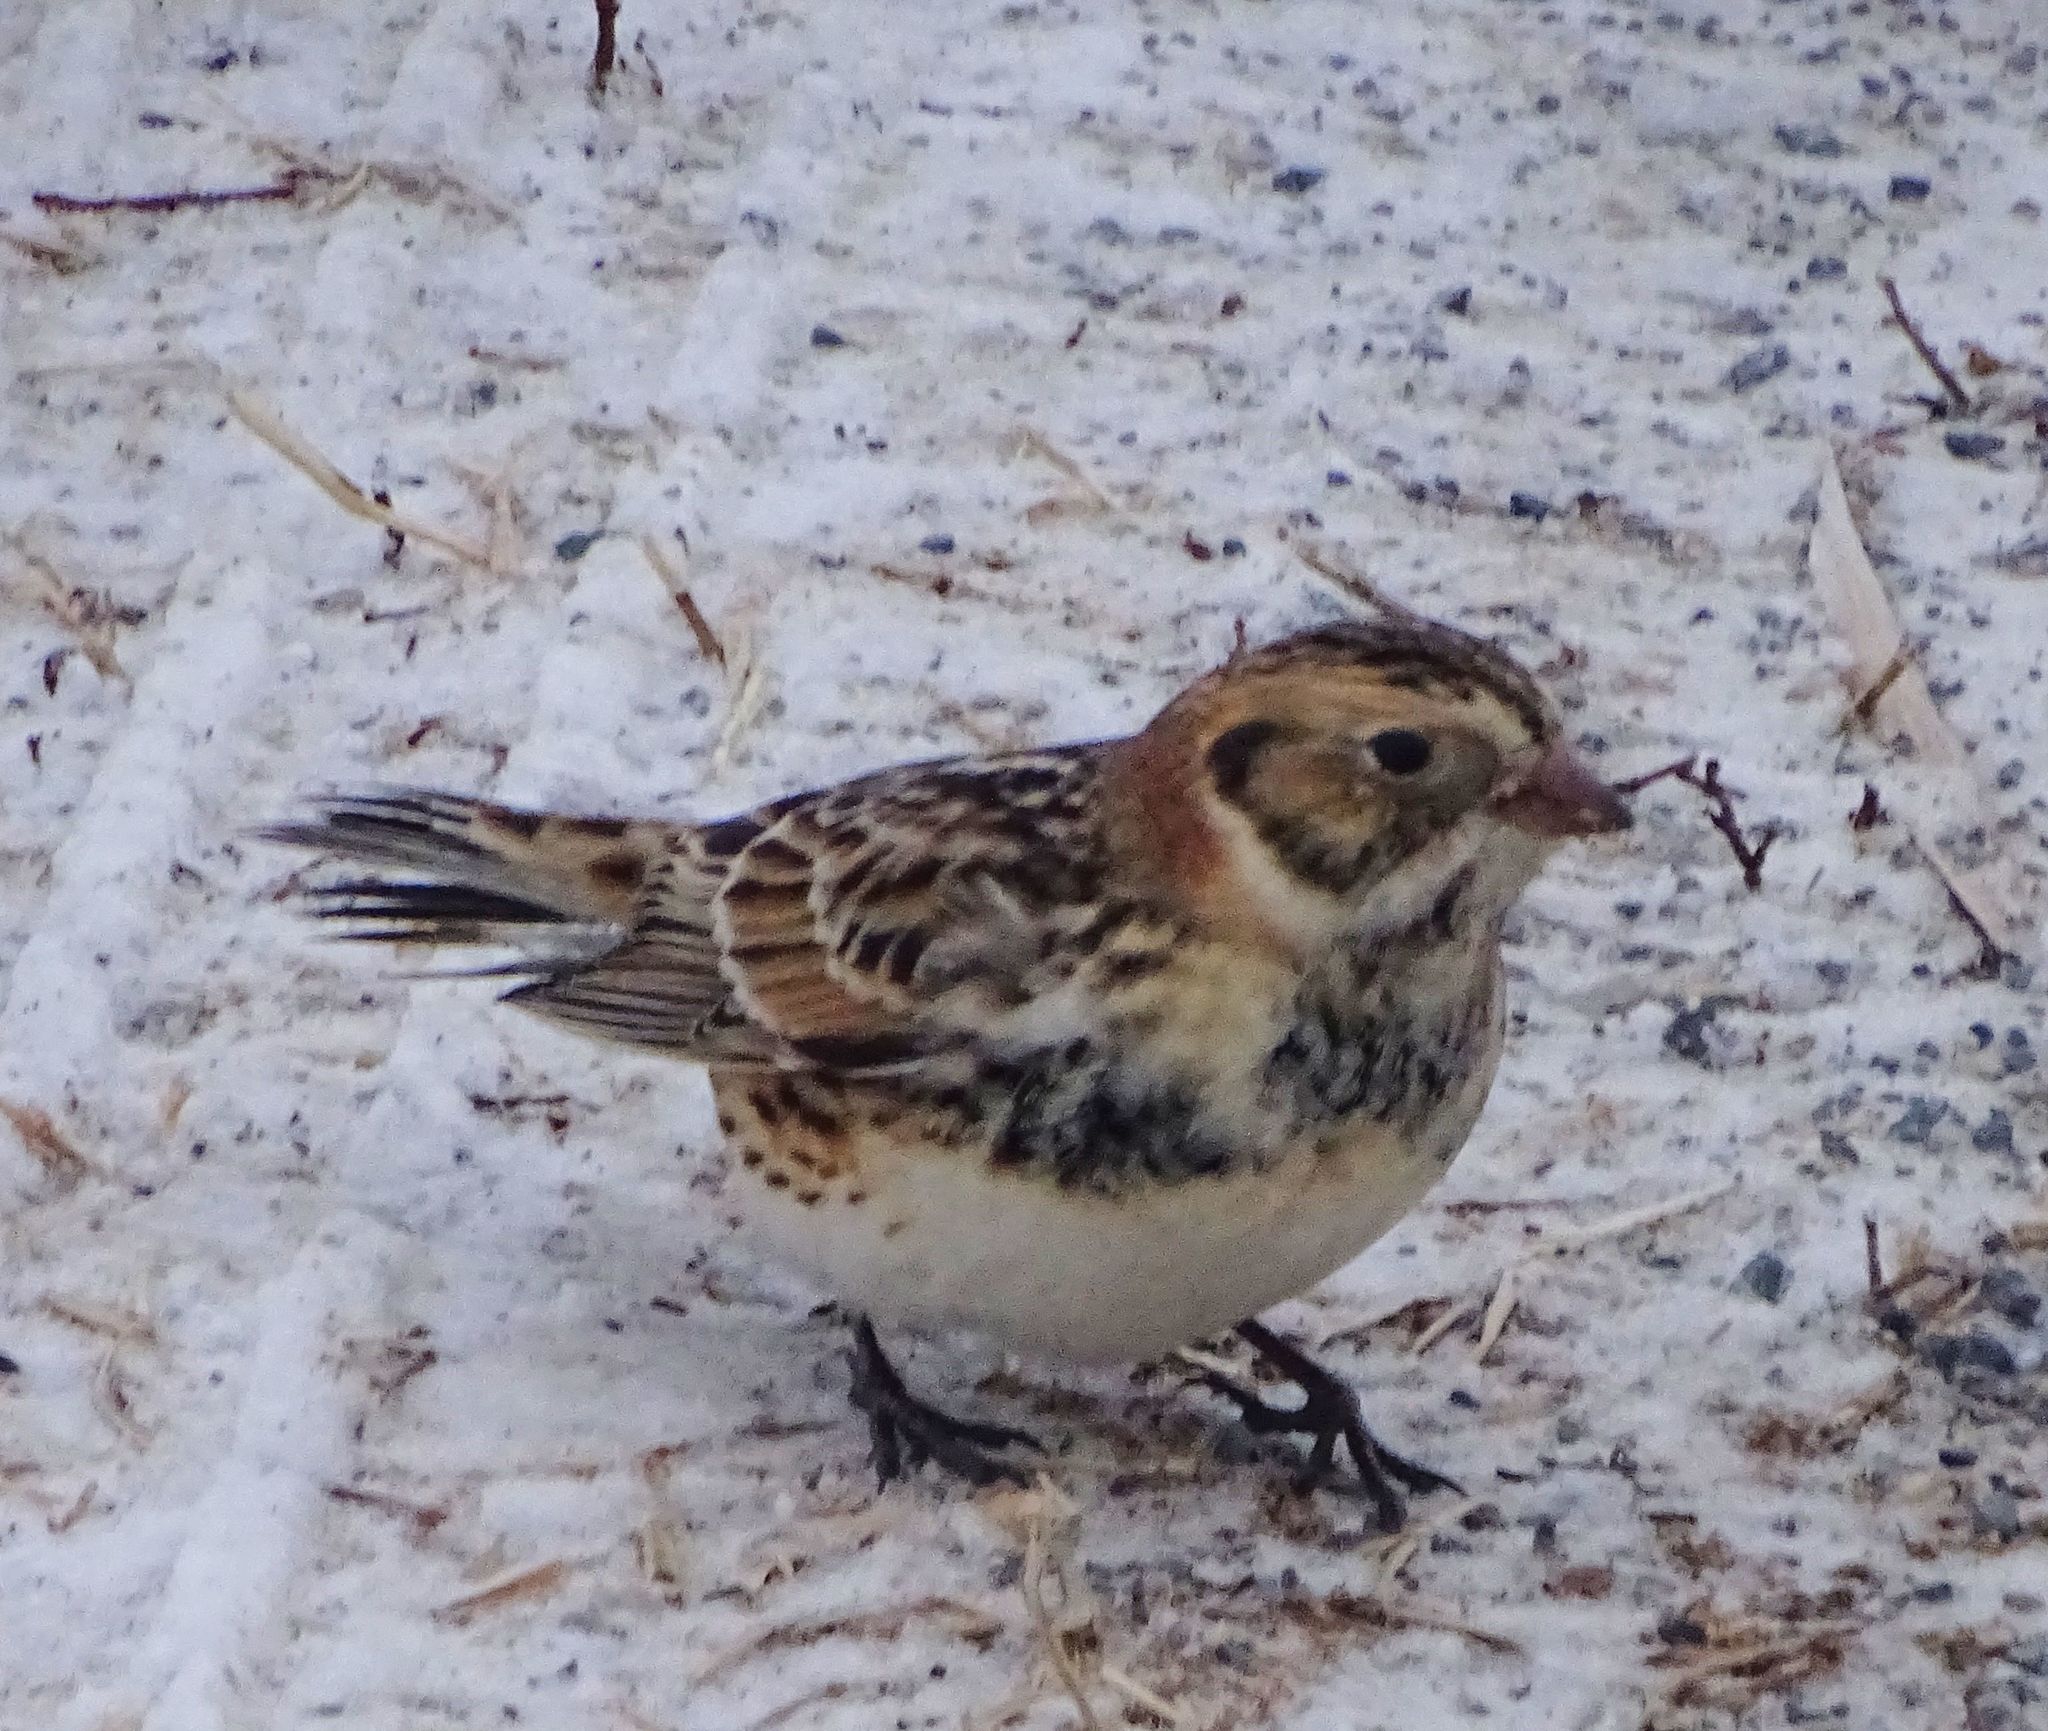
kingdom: Animalia
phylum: Chordata
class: Aves
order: Passeriformes
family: Calcariidae
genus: Calcarius
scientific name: Calcarius lapponicus
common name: Lapland longspur
